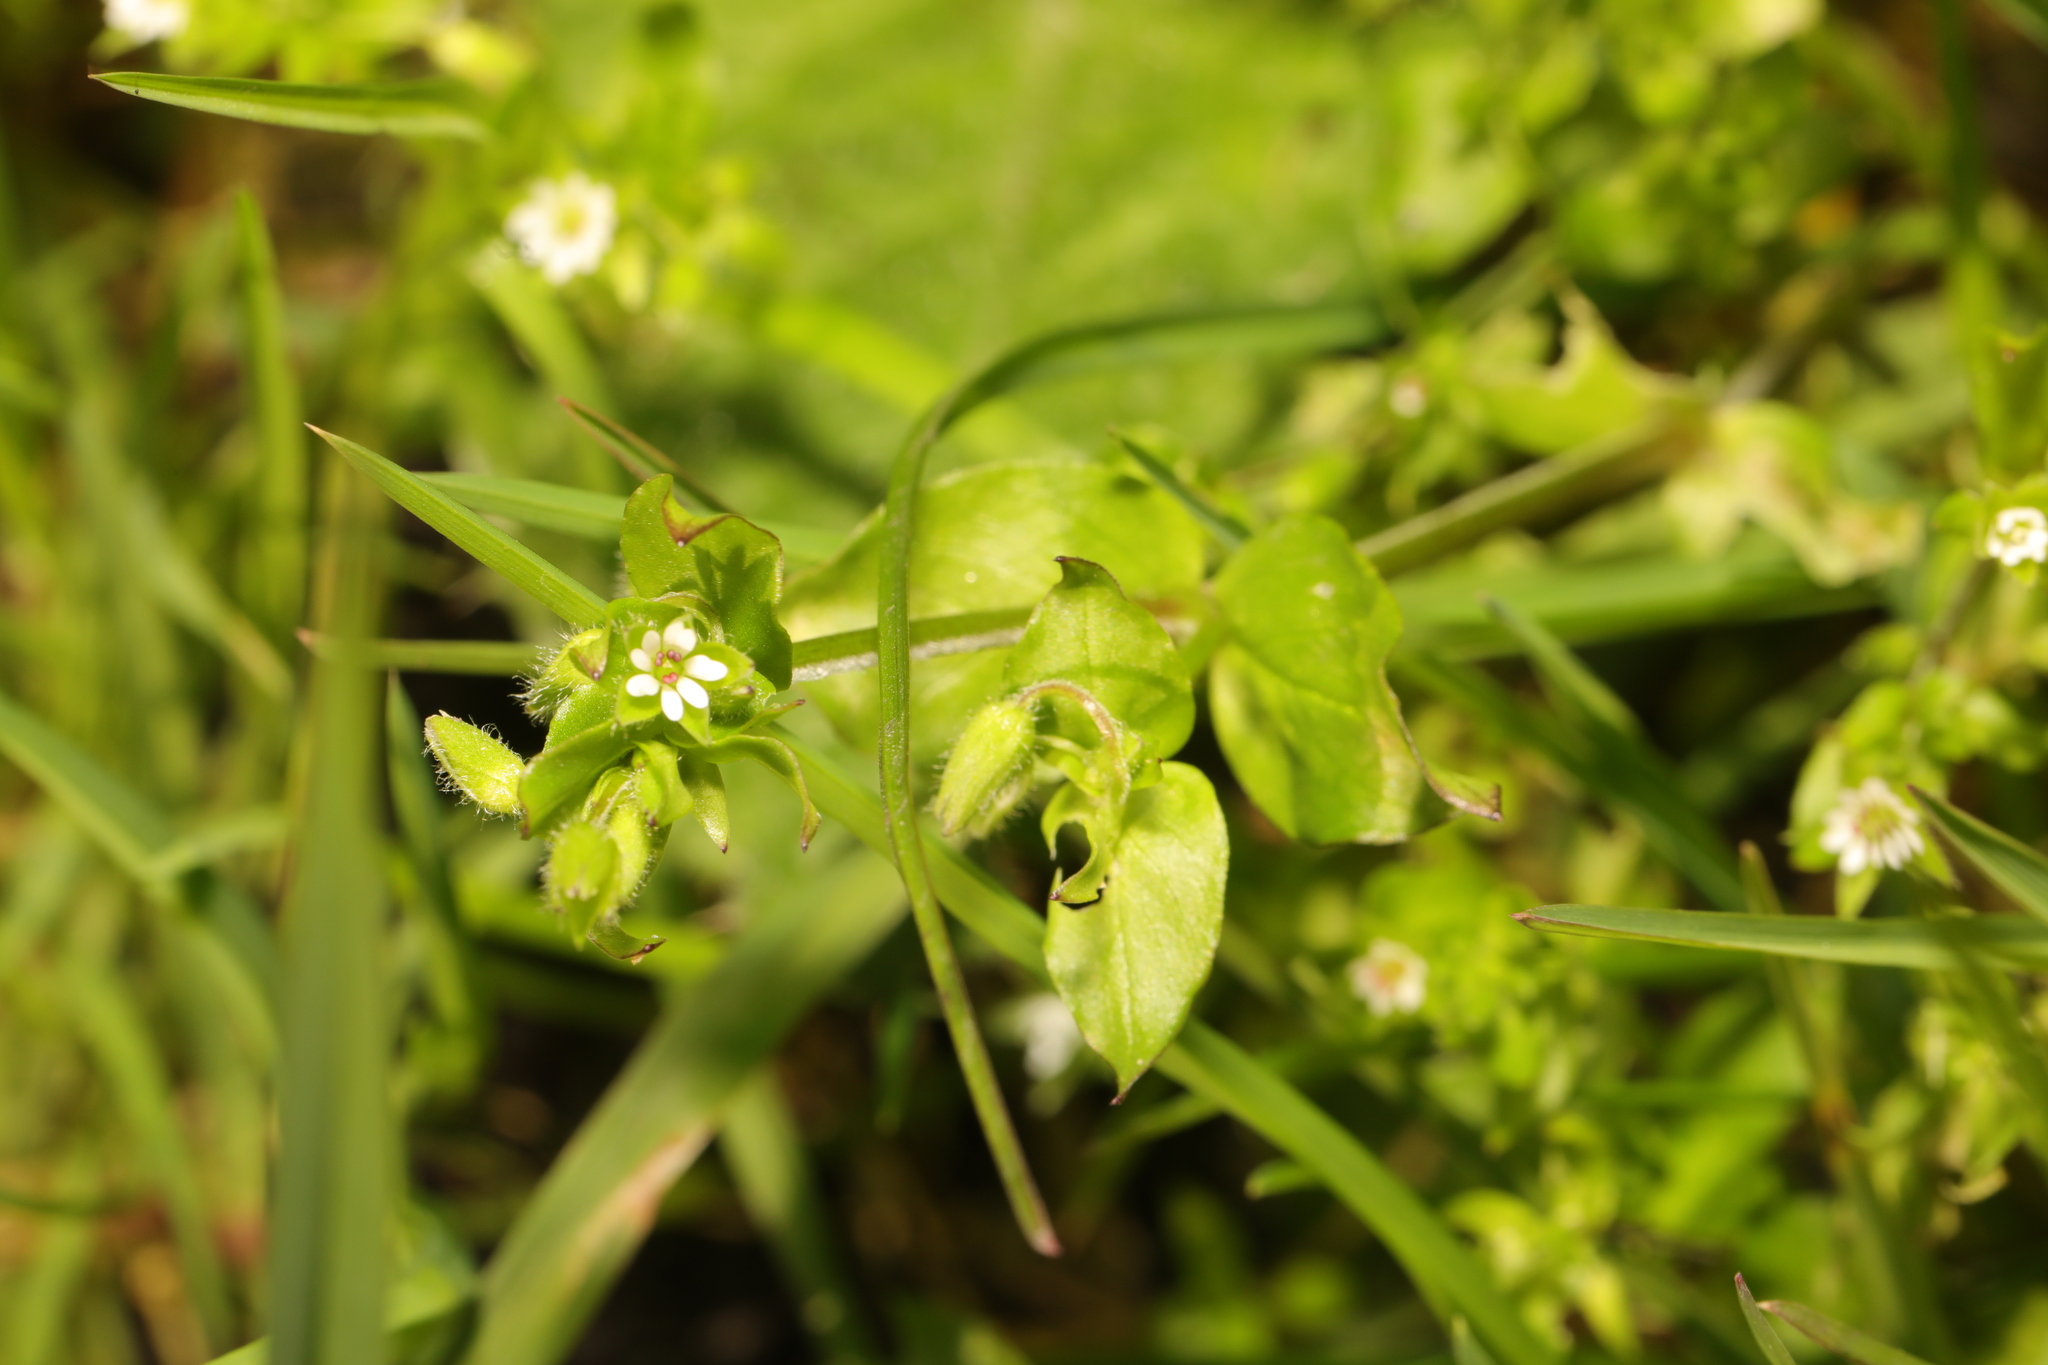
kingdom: Plantae
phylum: Tracheophyta
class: Magnoliopsida
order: Caryophyllales
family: Caryophyllaceae
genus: Stellaria
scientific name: Stellaria media
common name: Common chickweed
